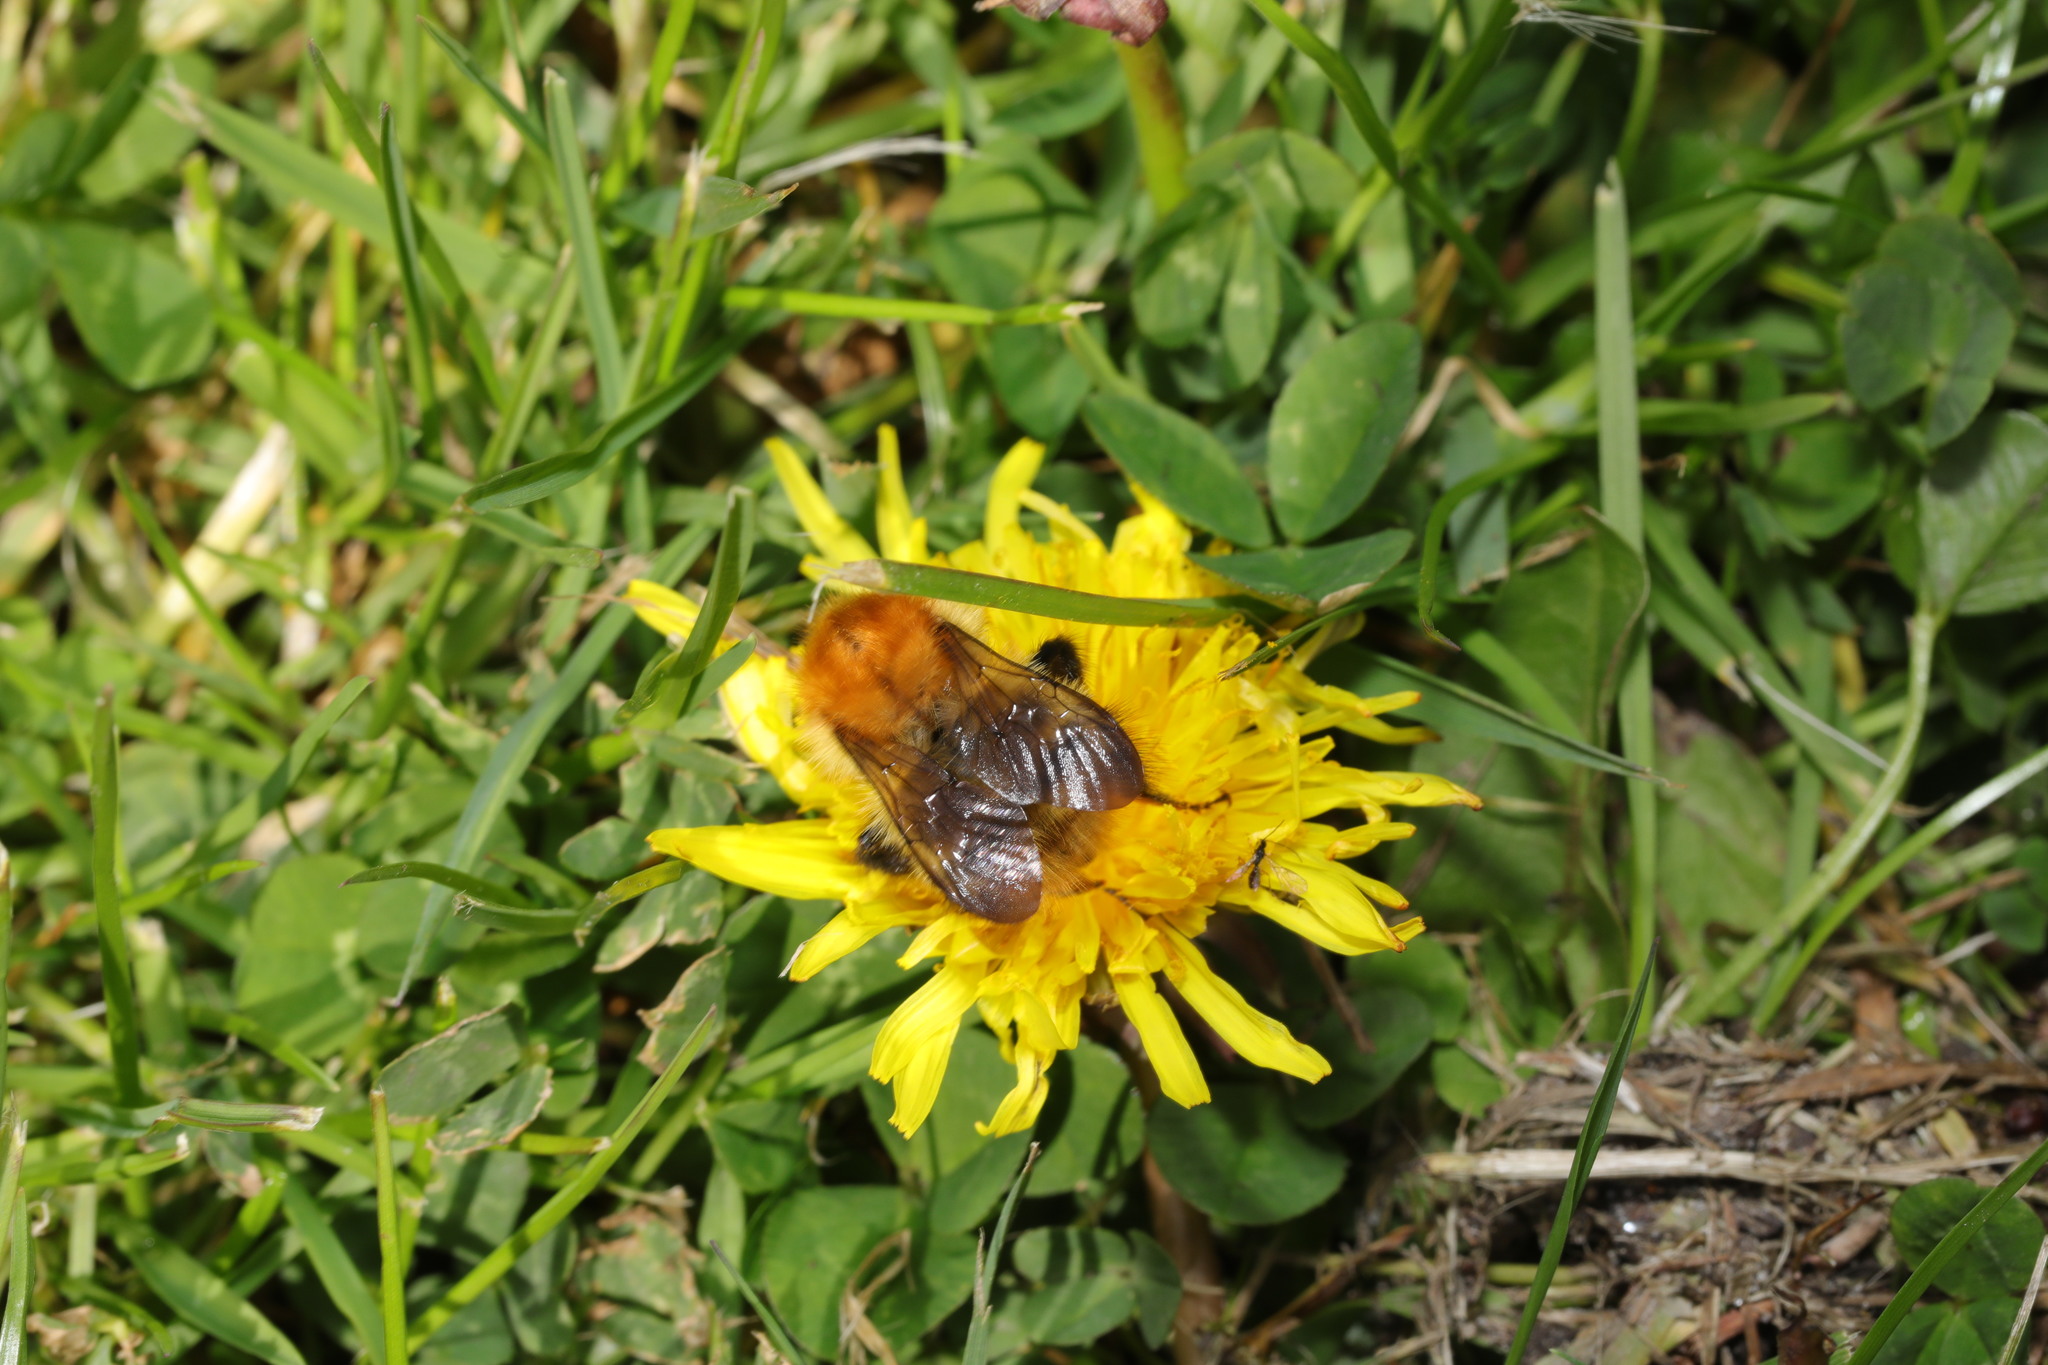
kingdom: Animalia
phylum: Arthropoda
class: Insecta
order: Hymenoptera
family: Apidae
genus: Bombus
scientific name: Bombus pascuorum
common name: Common carder bee
